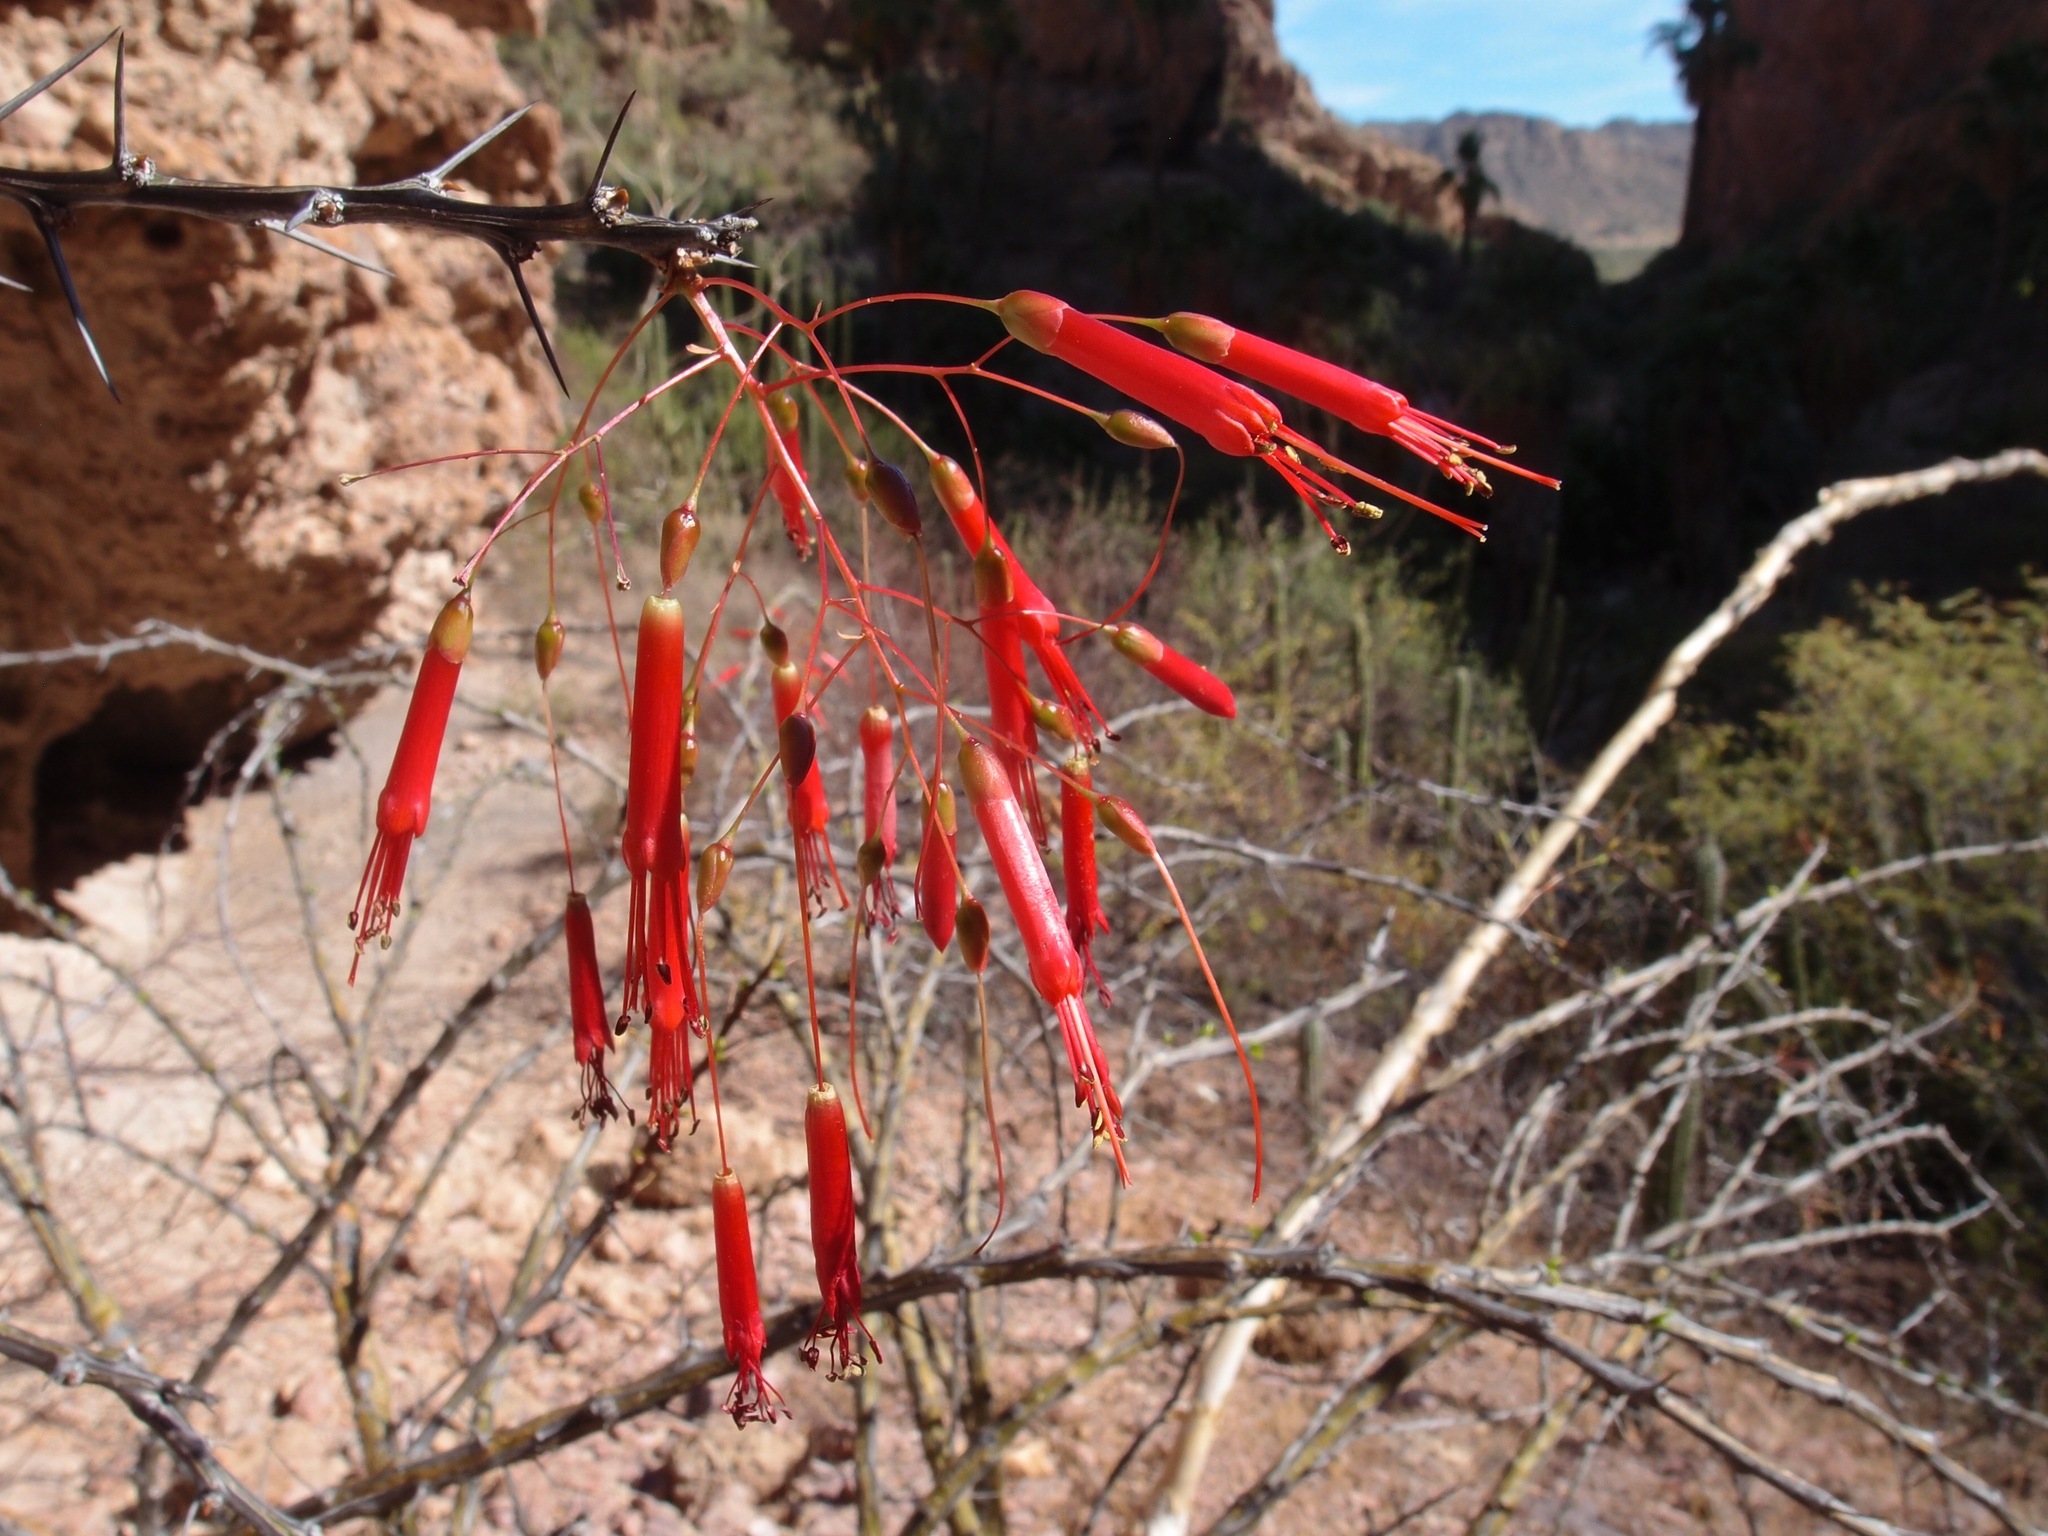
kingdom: Plantae
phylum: Tracheophyta
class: Magnoliopsida
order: Ericales
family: Fouquieriaceae
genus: Fouquieria
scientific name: Fouquieria macdougalii
